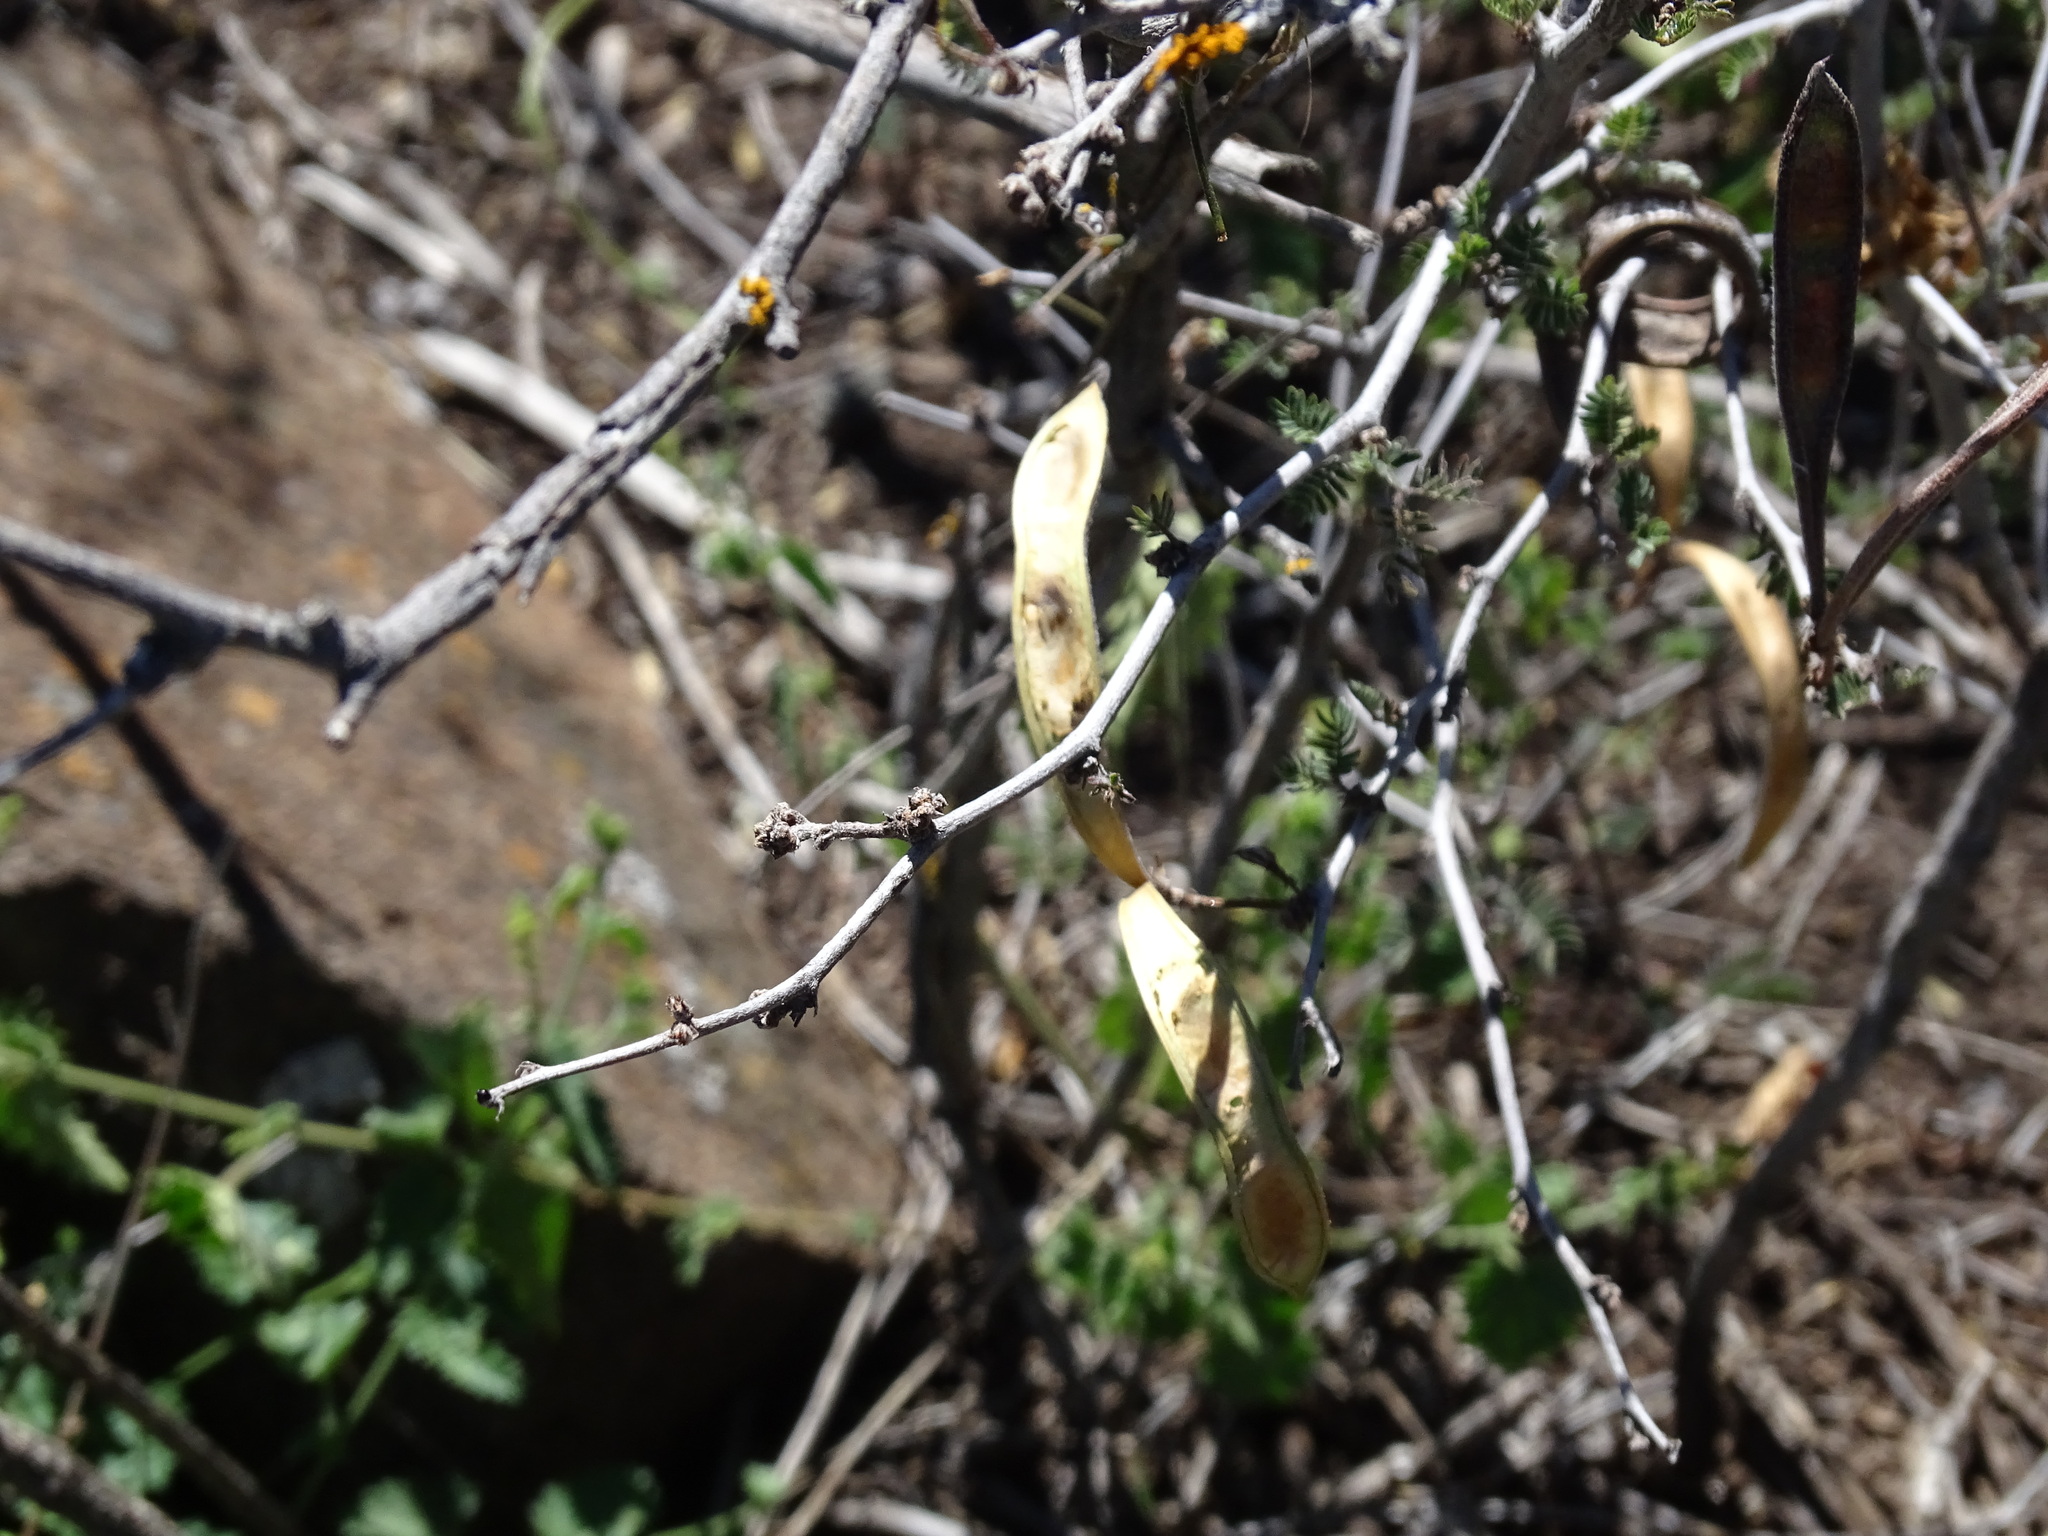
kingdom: Plantae
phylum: Tracheophyta
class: Magnoliopsida
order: Fabales
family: Fabaceae
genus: Calliandra
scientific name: Calliandra eriophylla
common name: Fairy-duster
